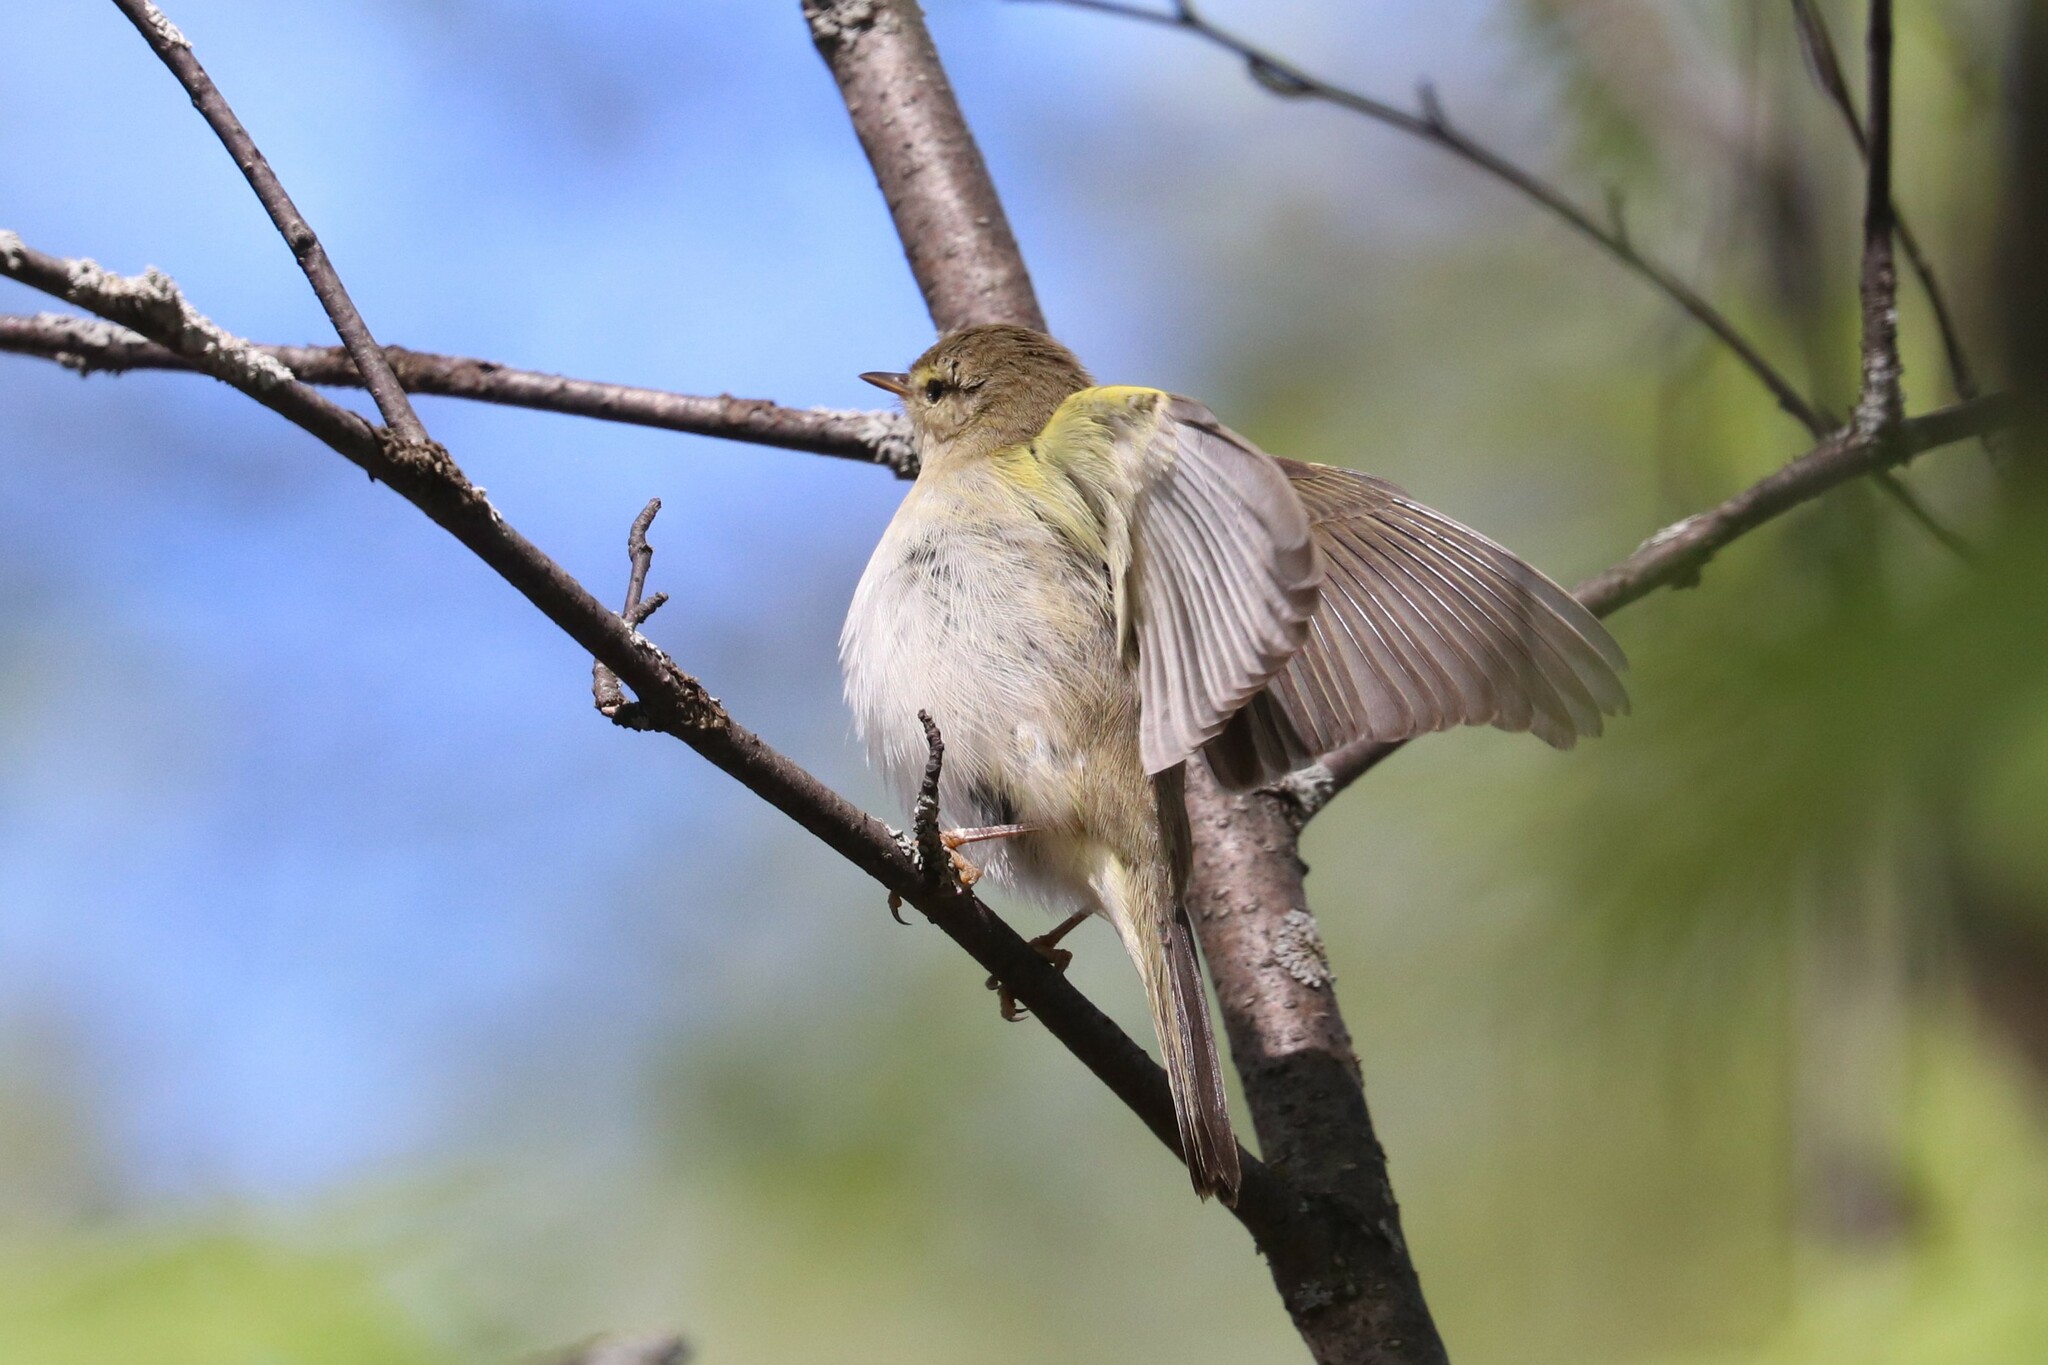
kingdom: Animalia
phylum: Chordata
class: Aves
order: Passeriformes
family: Phylloscopidae
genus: Phylloscopus
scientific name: Phylloscopus trochilus
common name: Willow warbler
